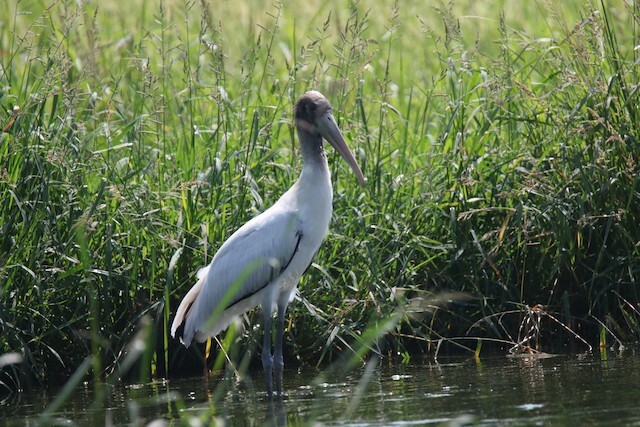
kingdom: Animalia
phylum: Chordata
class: Aves
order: Ciconiiformes
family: Ciconiidae
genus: Mycteria
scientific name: Mycteria americana
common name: Wood stork
